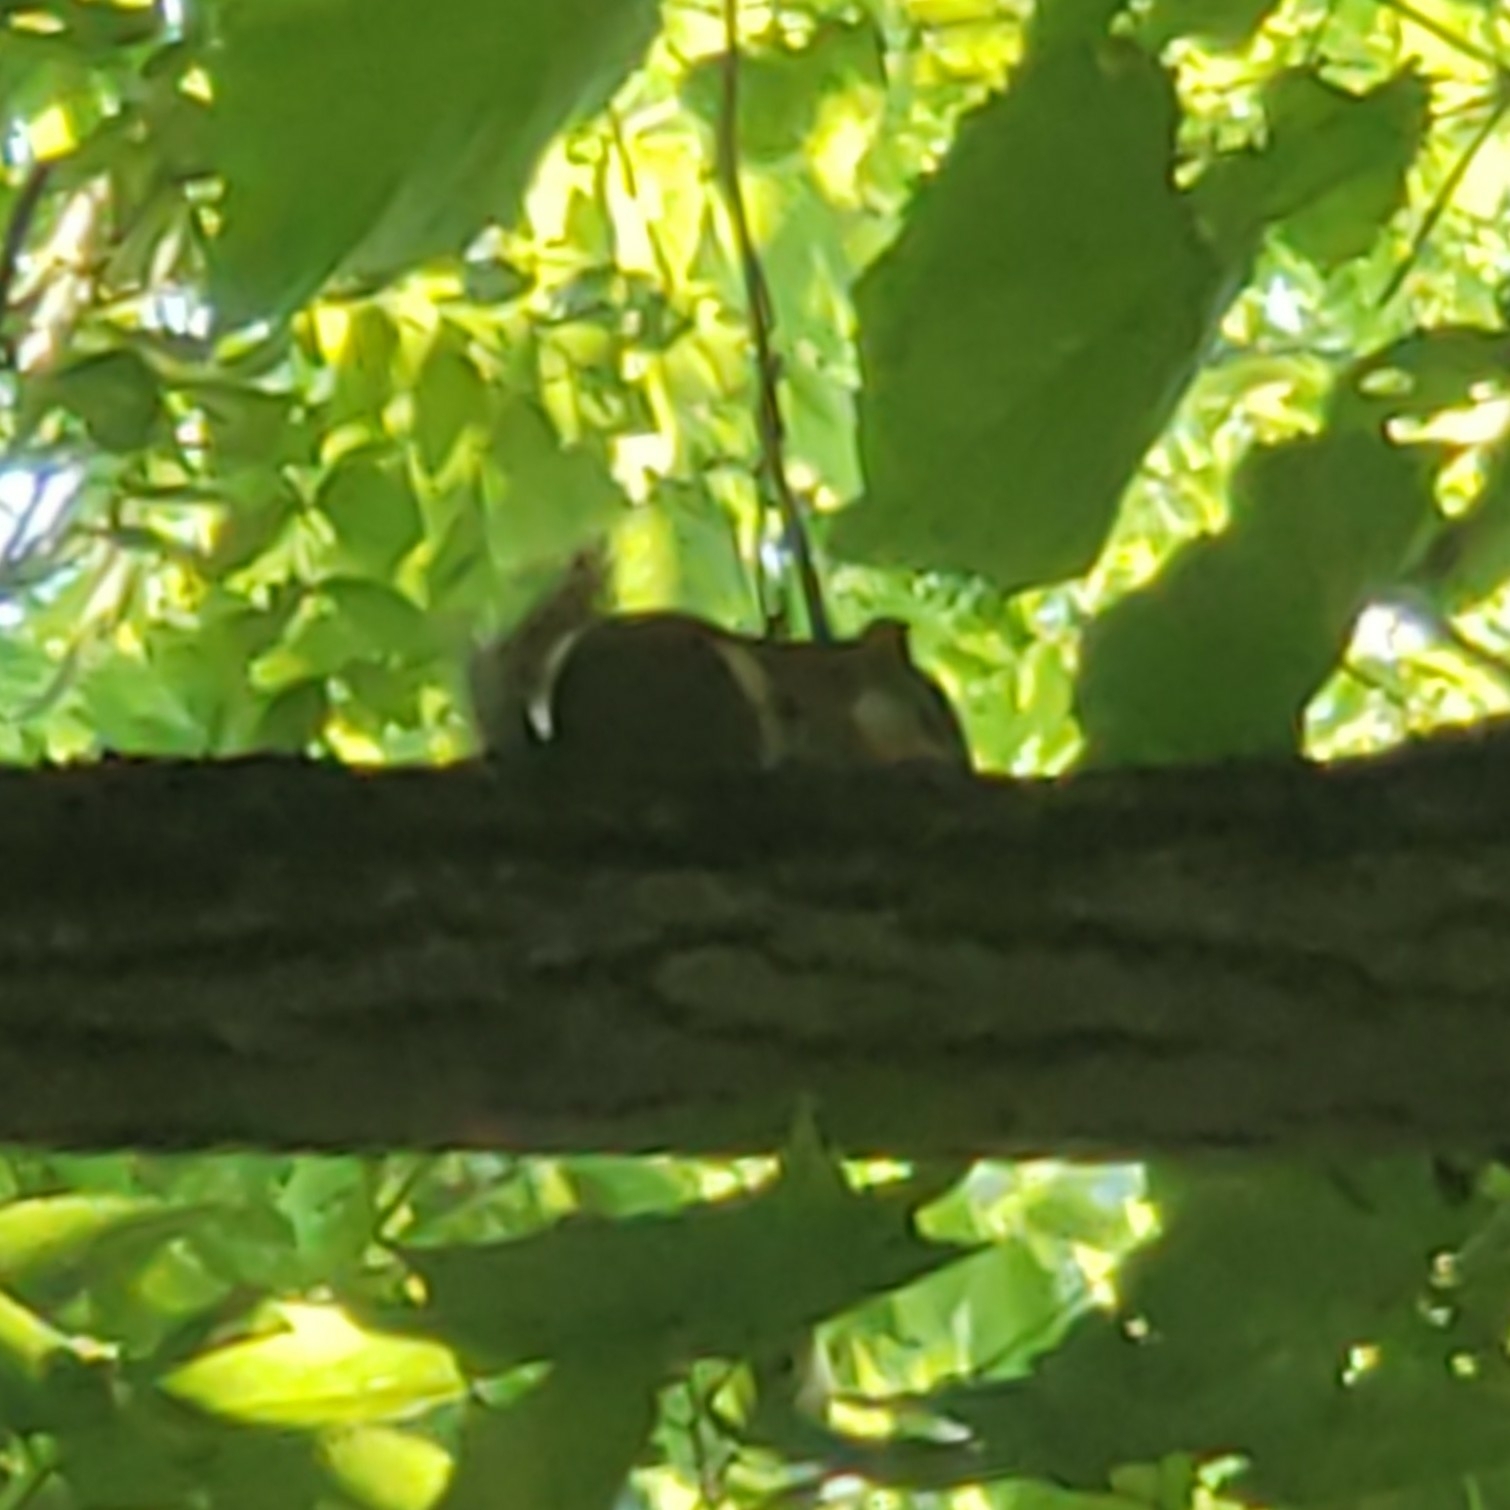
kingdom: Animalia
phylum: Chordata
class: Mammalia
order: Rodentia
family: Sciuridae
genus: Tamiasciurus
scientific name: Tamiasciurus hudsonicus
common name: Red squirrel
